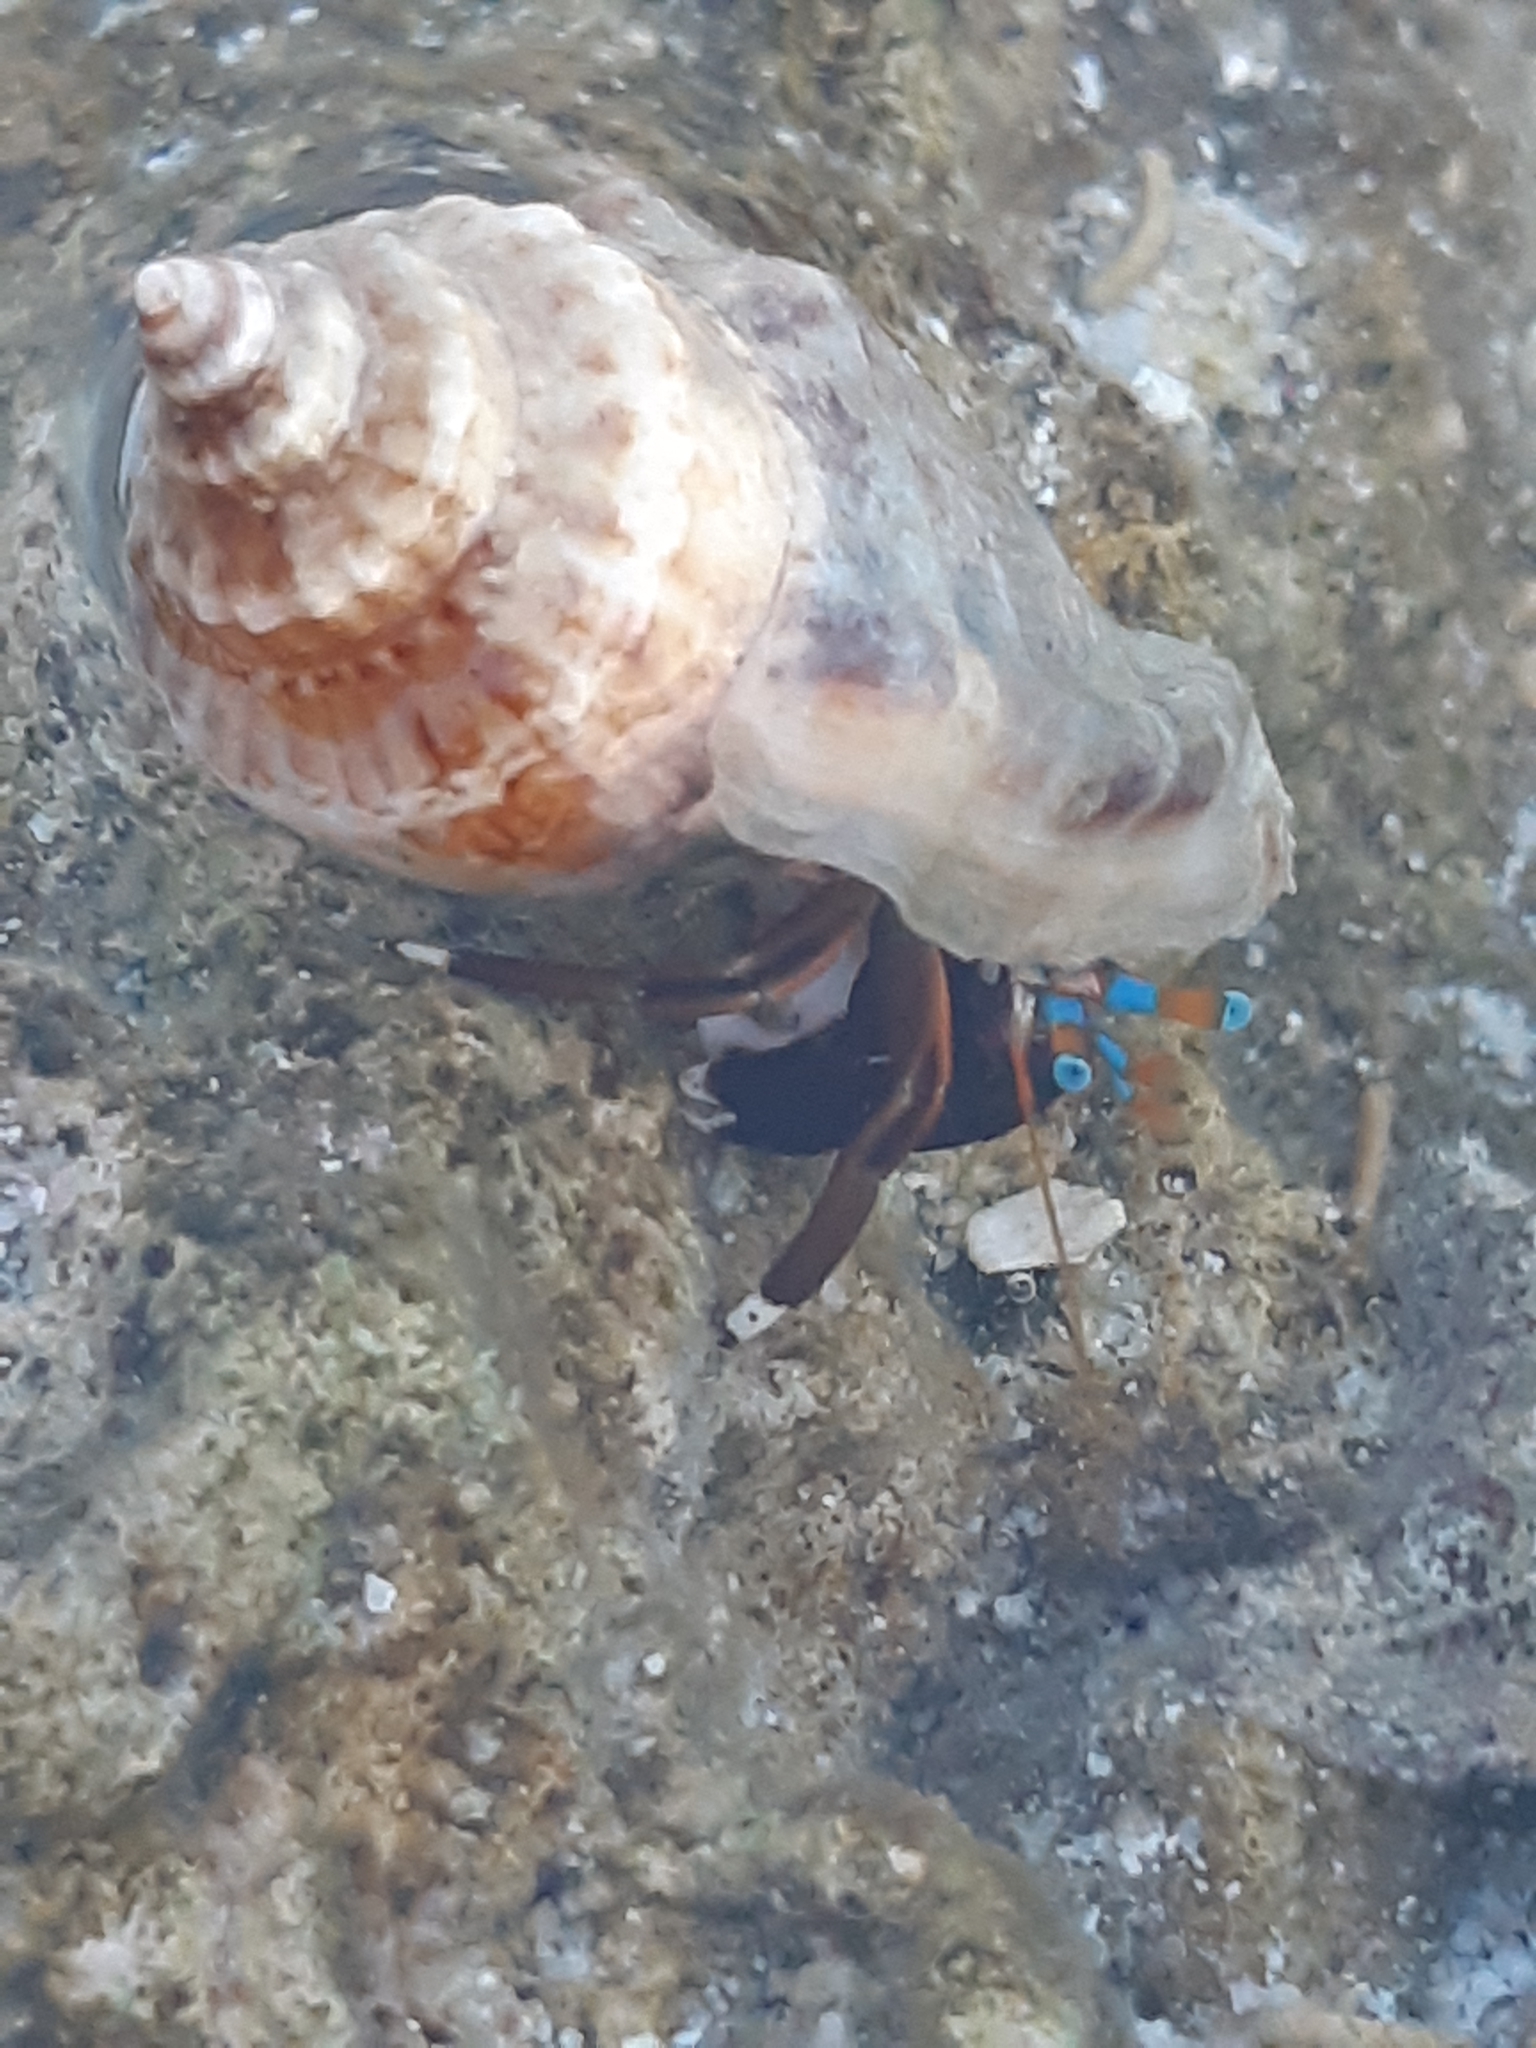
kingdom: Animalia
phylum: Arthropoda
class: Malacostraca
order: Decapoda
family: Diogenidae
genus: Calcinus
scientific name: Calcinus laevimanus
